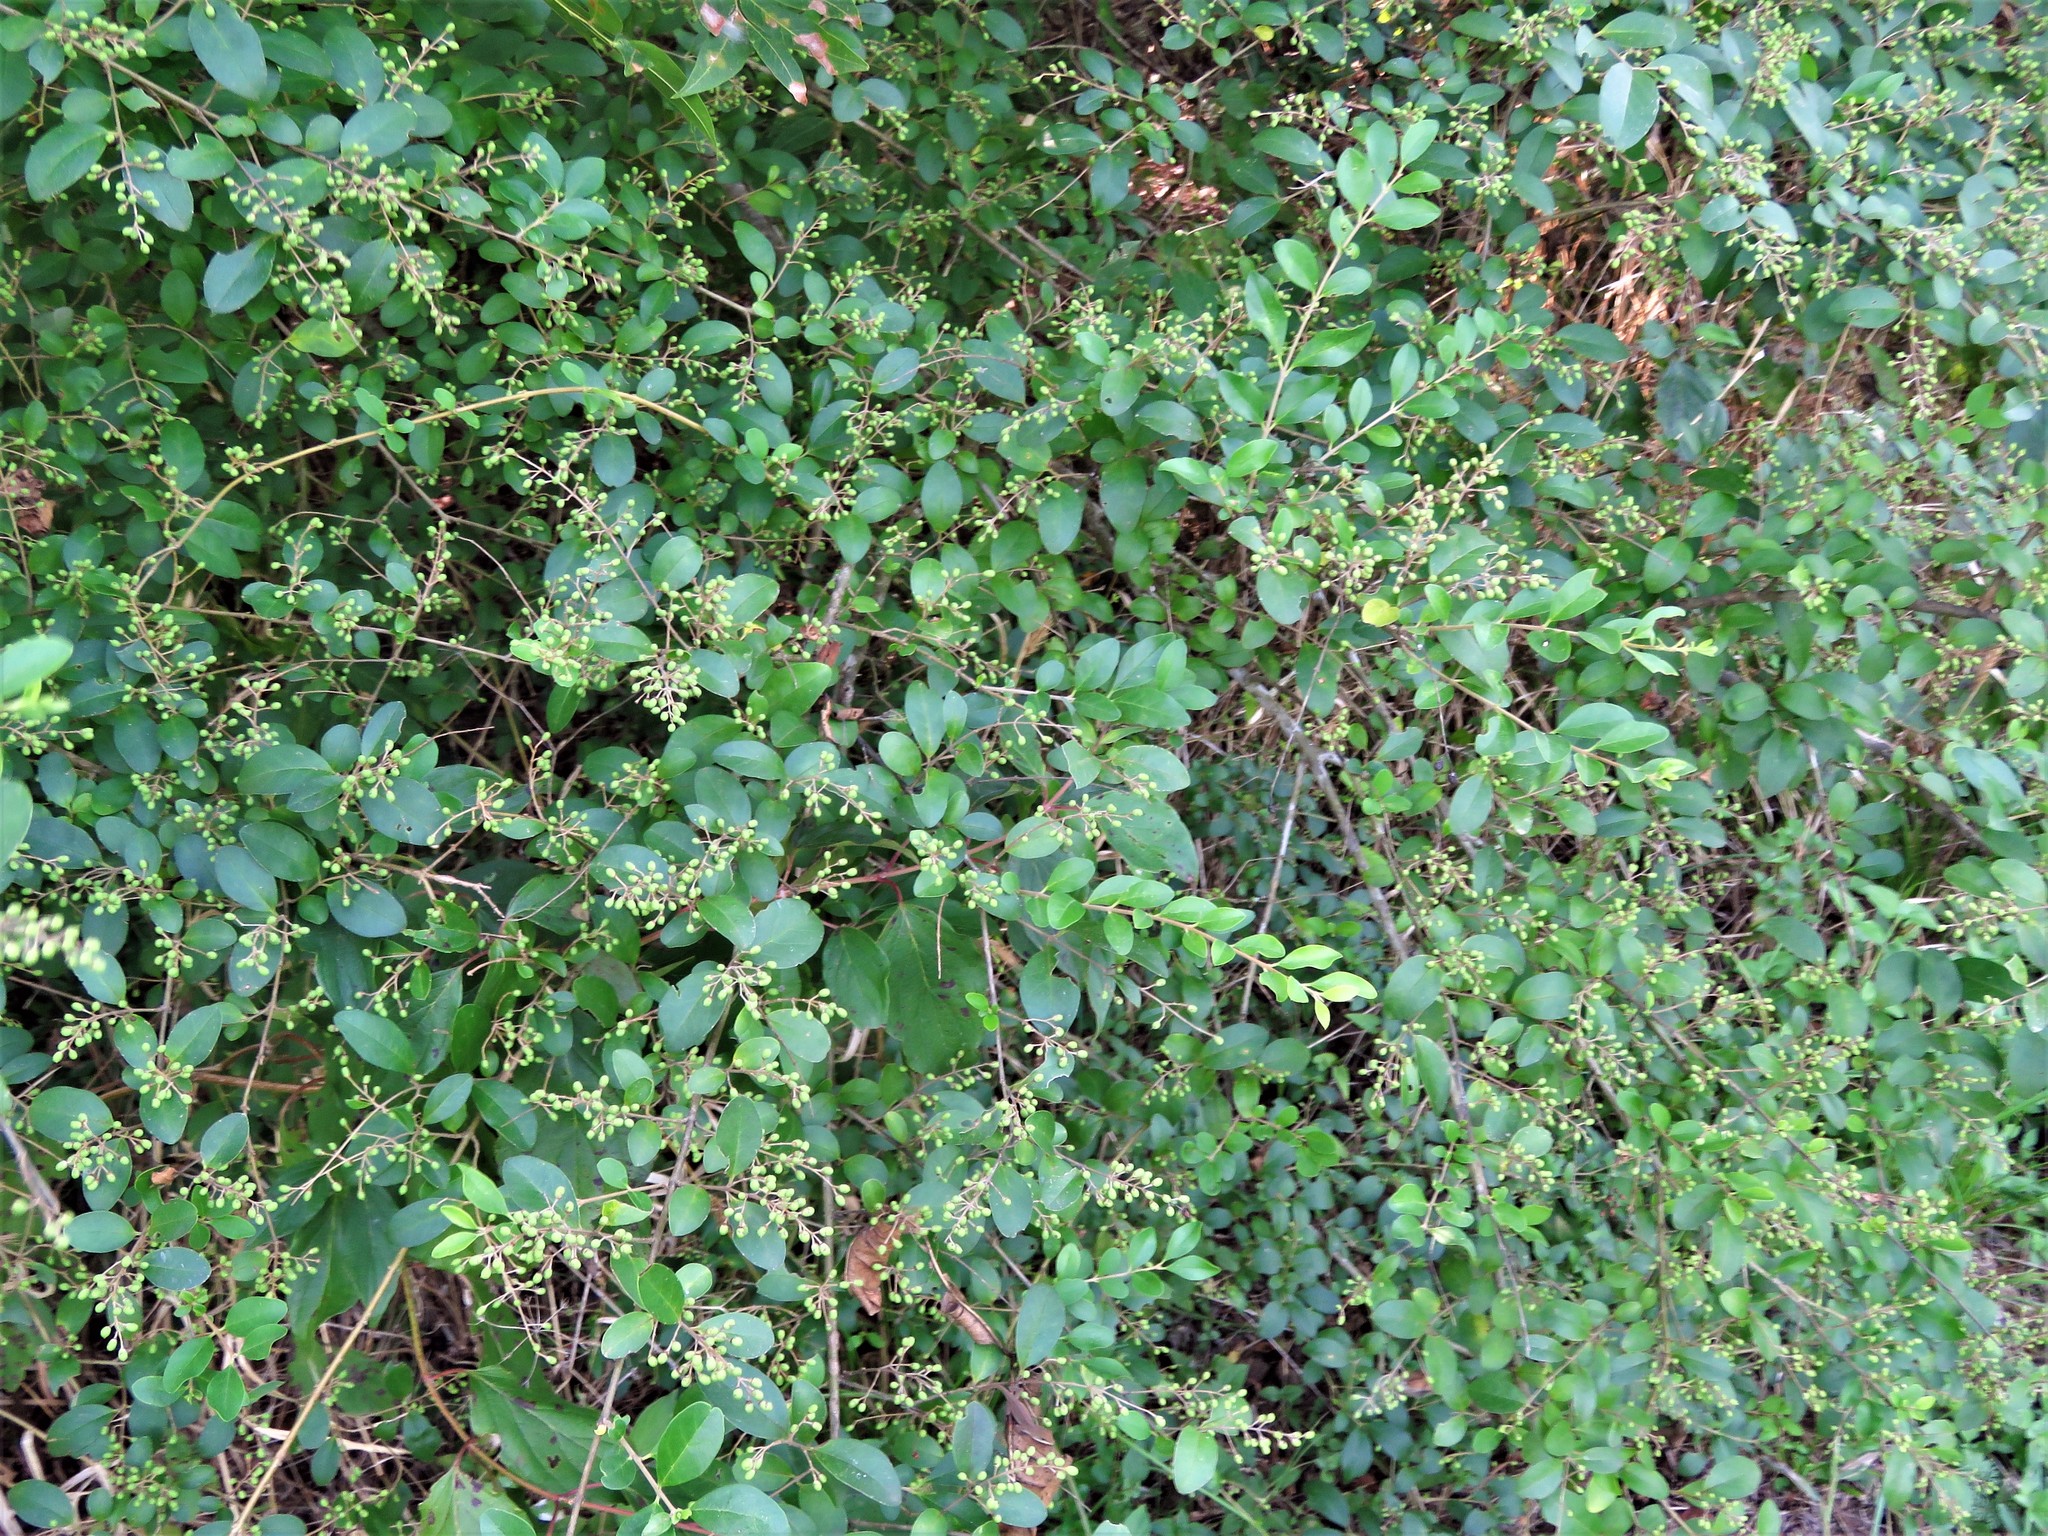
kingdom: Plantae
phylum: Tracheophyta
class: Magnoliopsida
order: Lamiales
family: Oleaceae
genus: Ligustrum
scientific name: Ligustrum sinense
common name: Chinese privet
